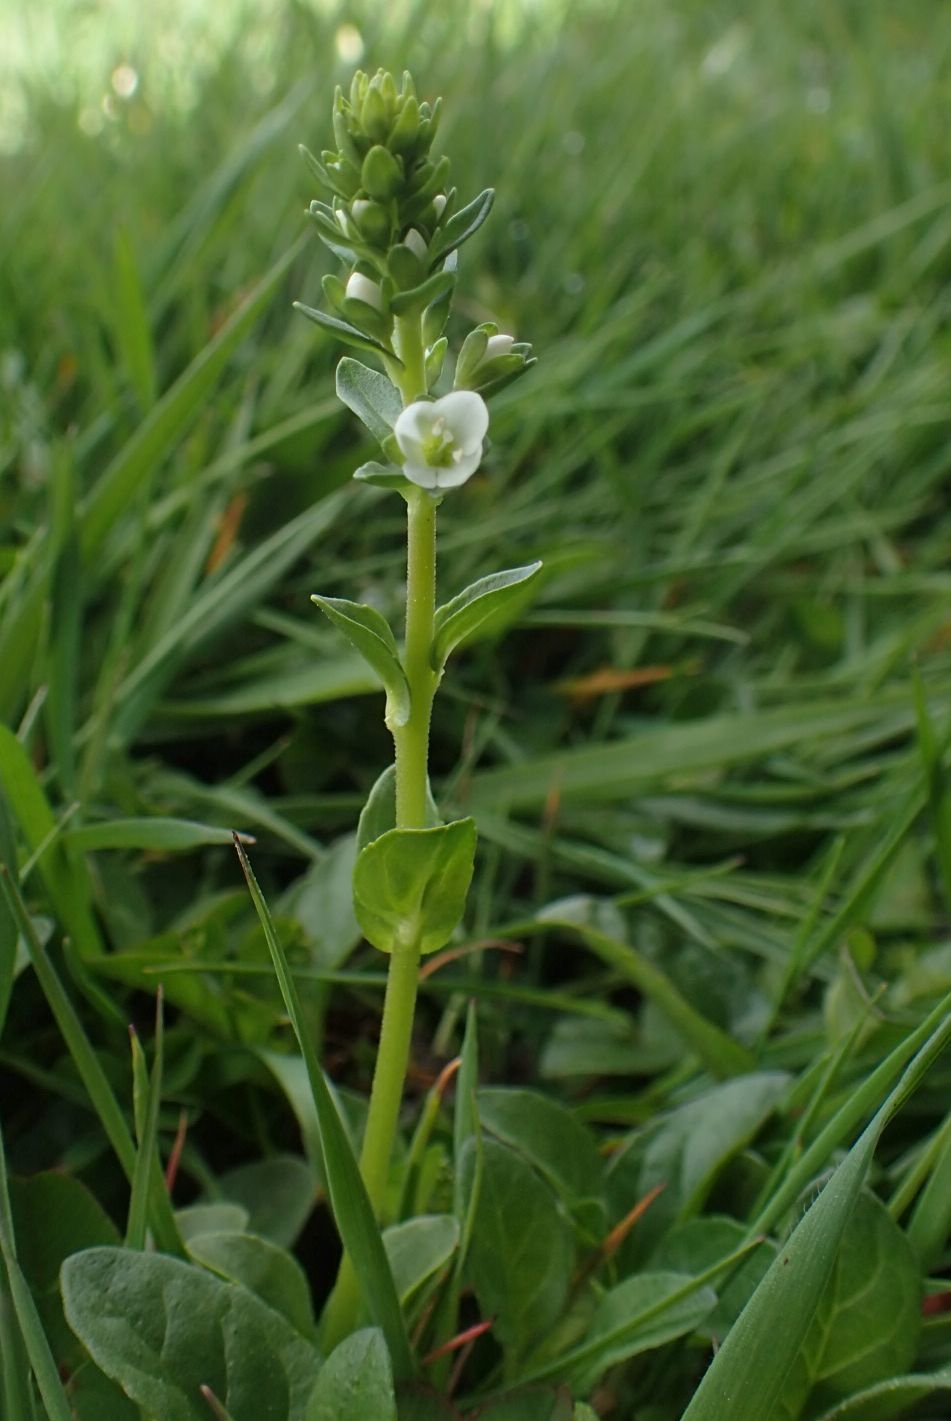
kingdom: Plantae
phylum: Tracheophyta
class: Magnoliopsida
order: Lamiales
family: Plantaginaceae
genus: Veronica
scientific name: Veronica serpyllifolia
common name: Thyme-leaved speedwell
